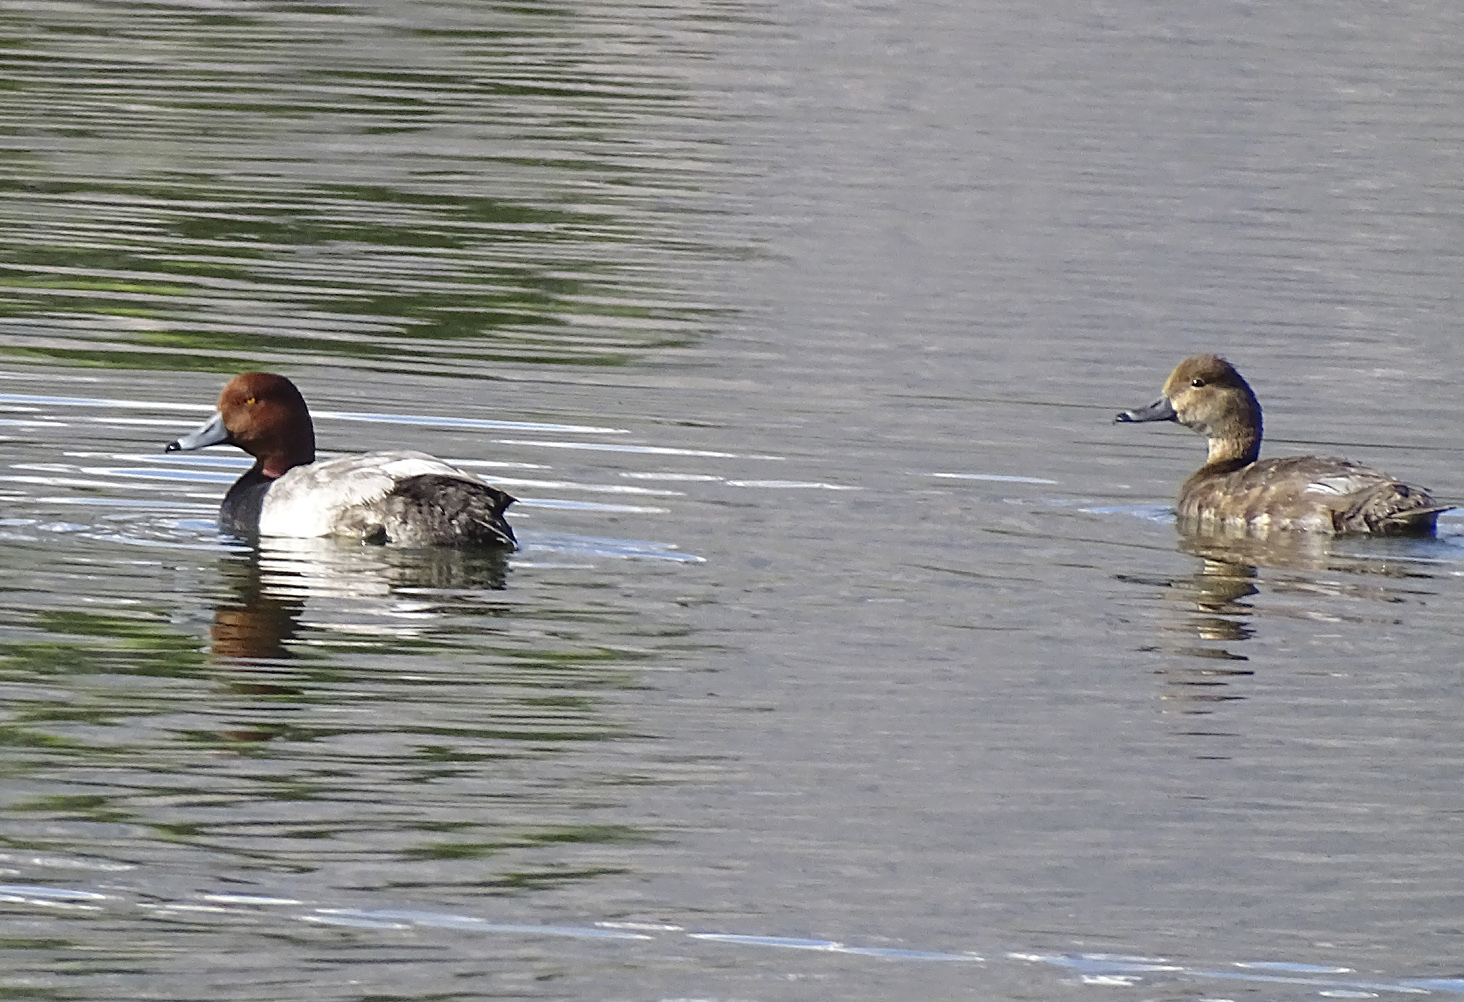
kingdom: Animalia
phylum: Chordata
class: Aves
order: Anseriformes
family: Anatidae
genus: Aythya
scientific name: Aythya americana
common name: Redhead
